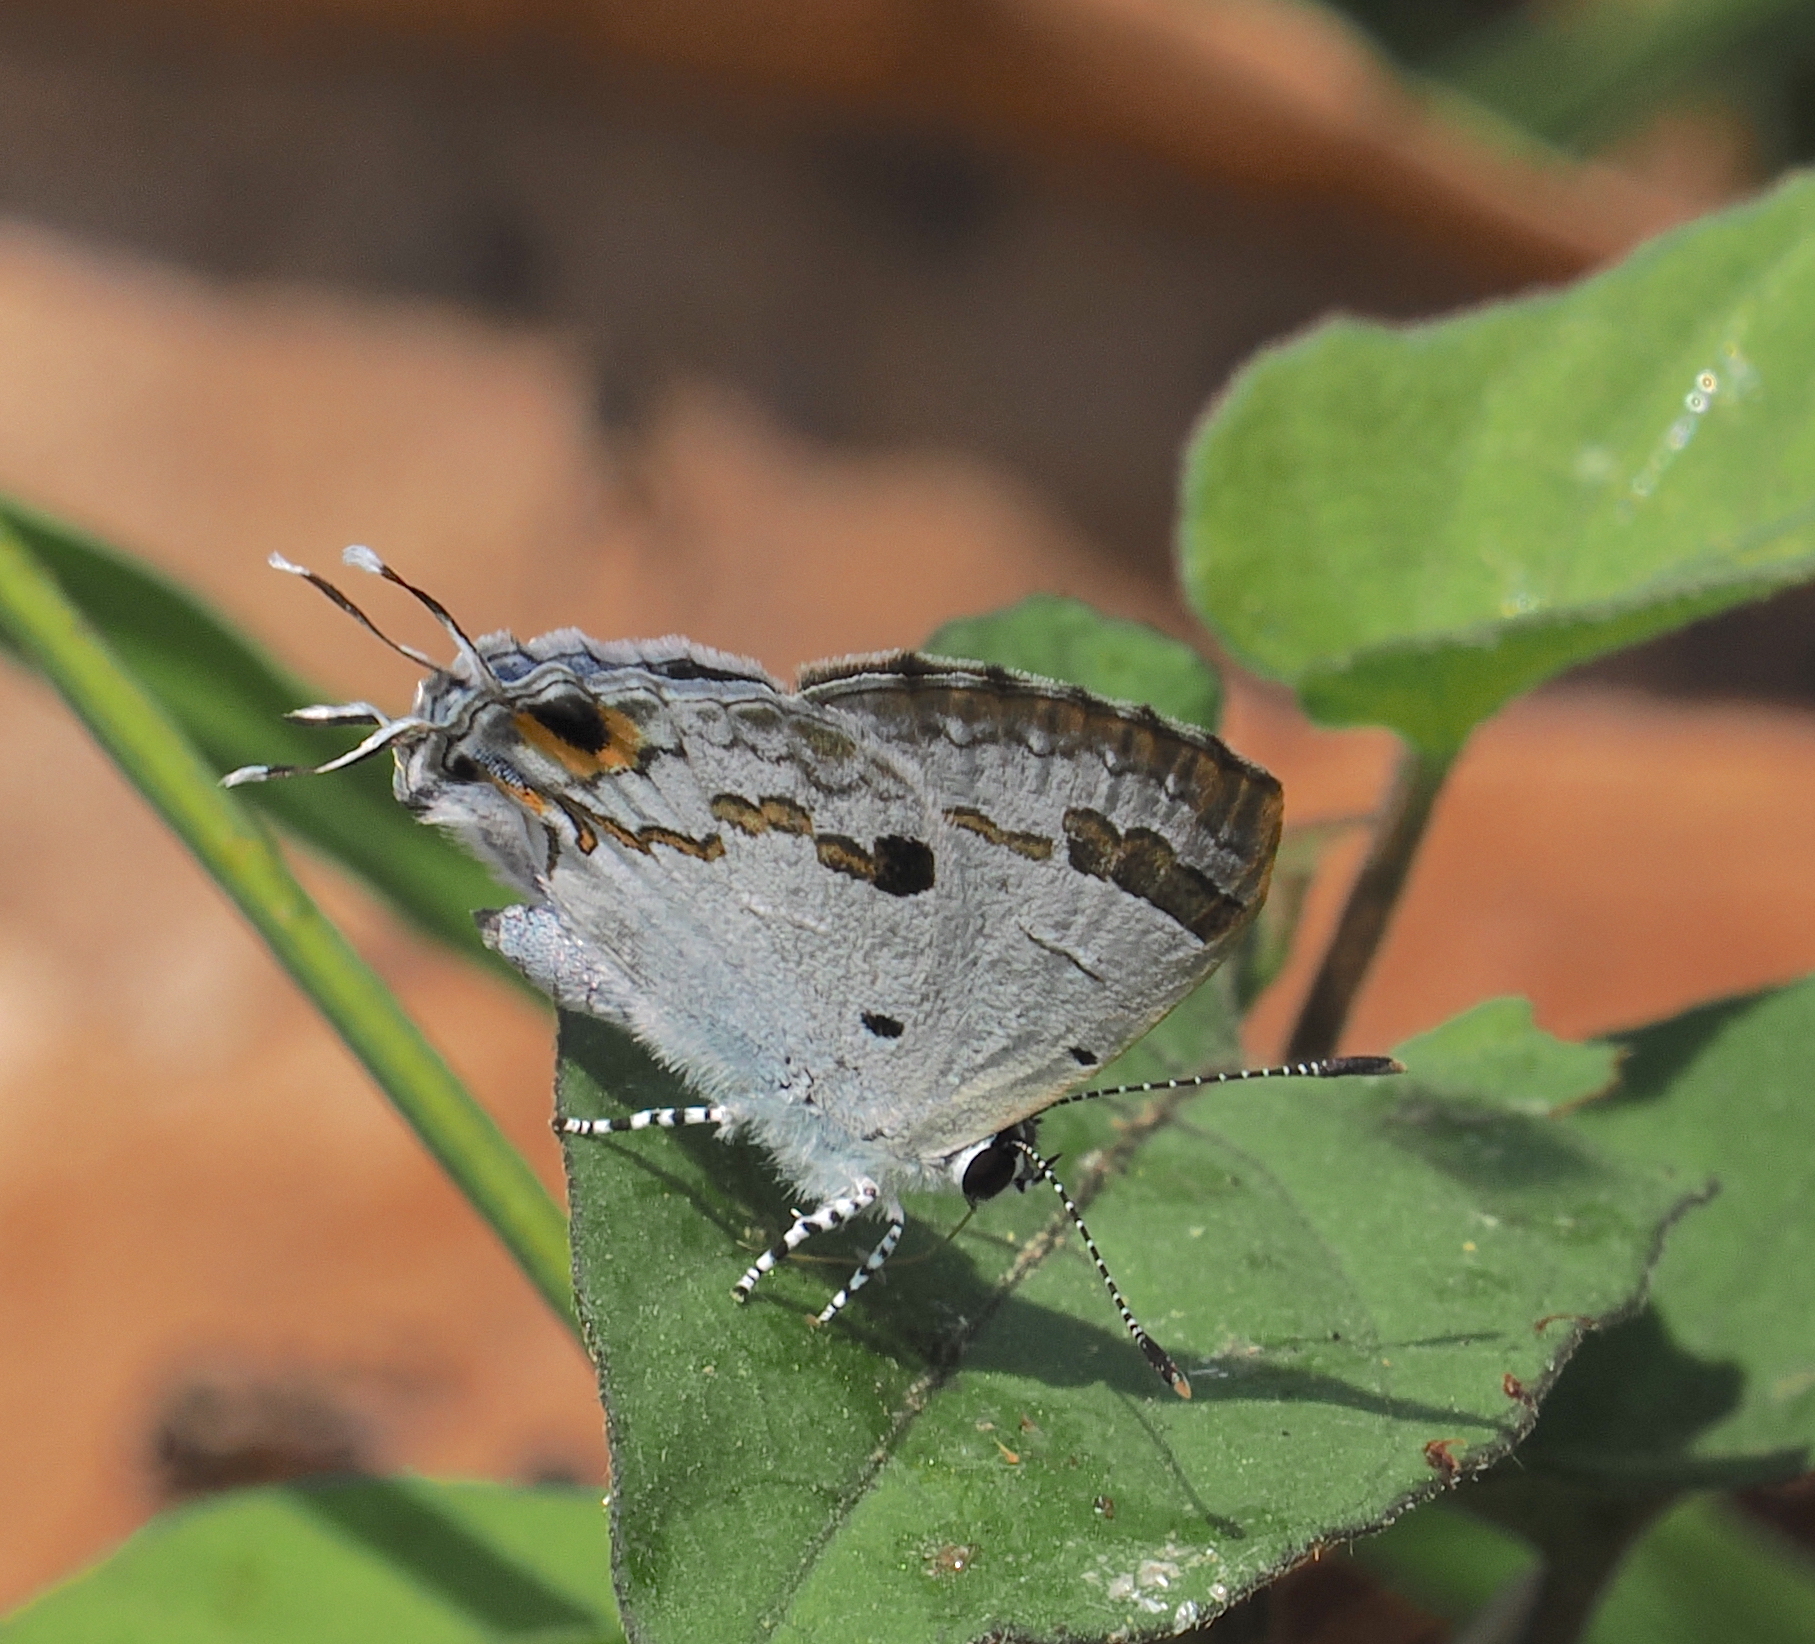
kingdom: Animalia
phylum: Arthropoda
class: Insecta
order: Lepidoptera
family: Lycaenidae
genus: Chliaria
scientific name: Chliaria othona
